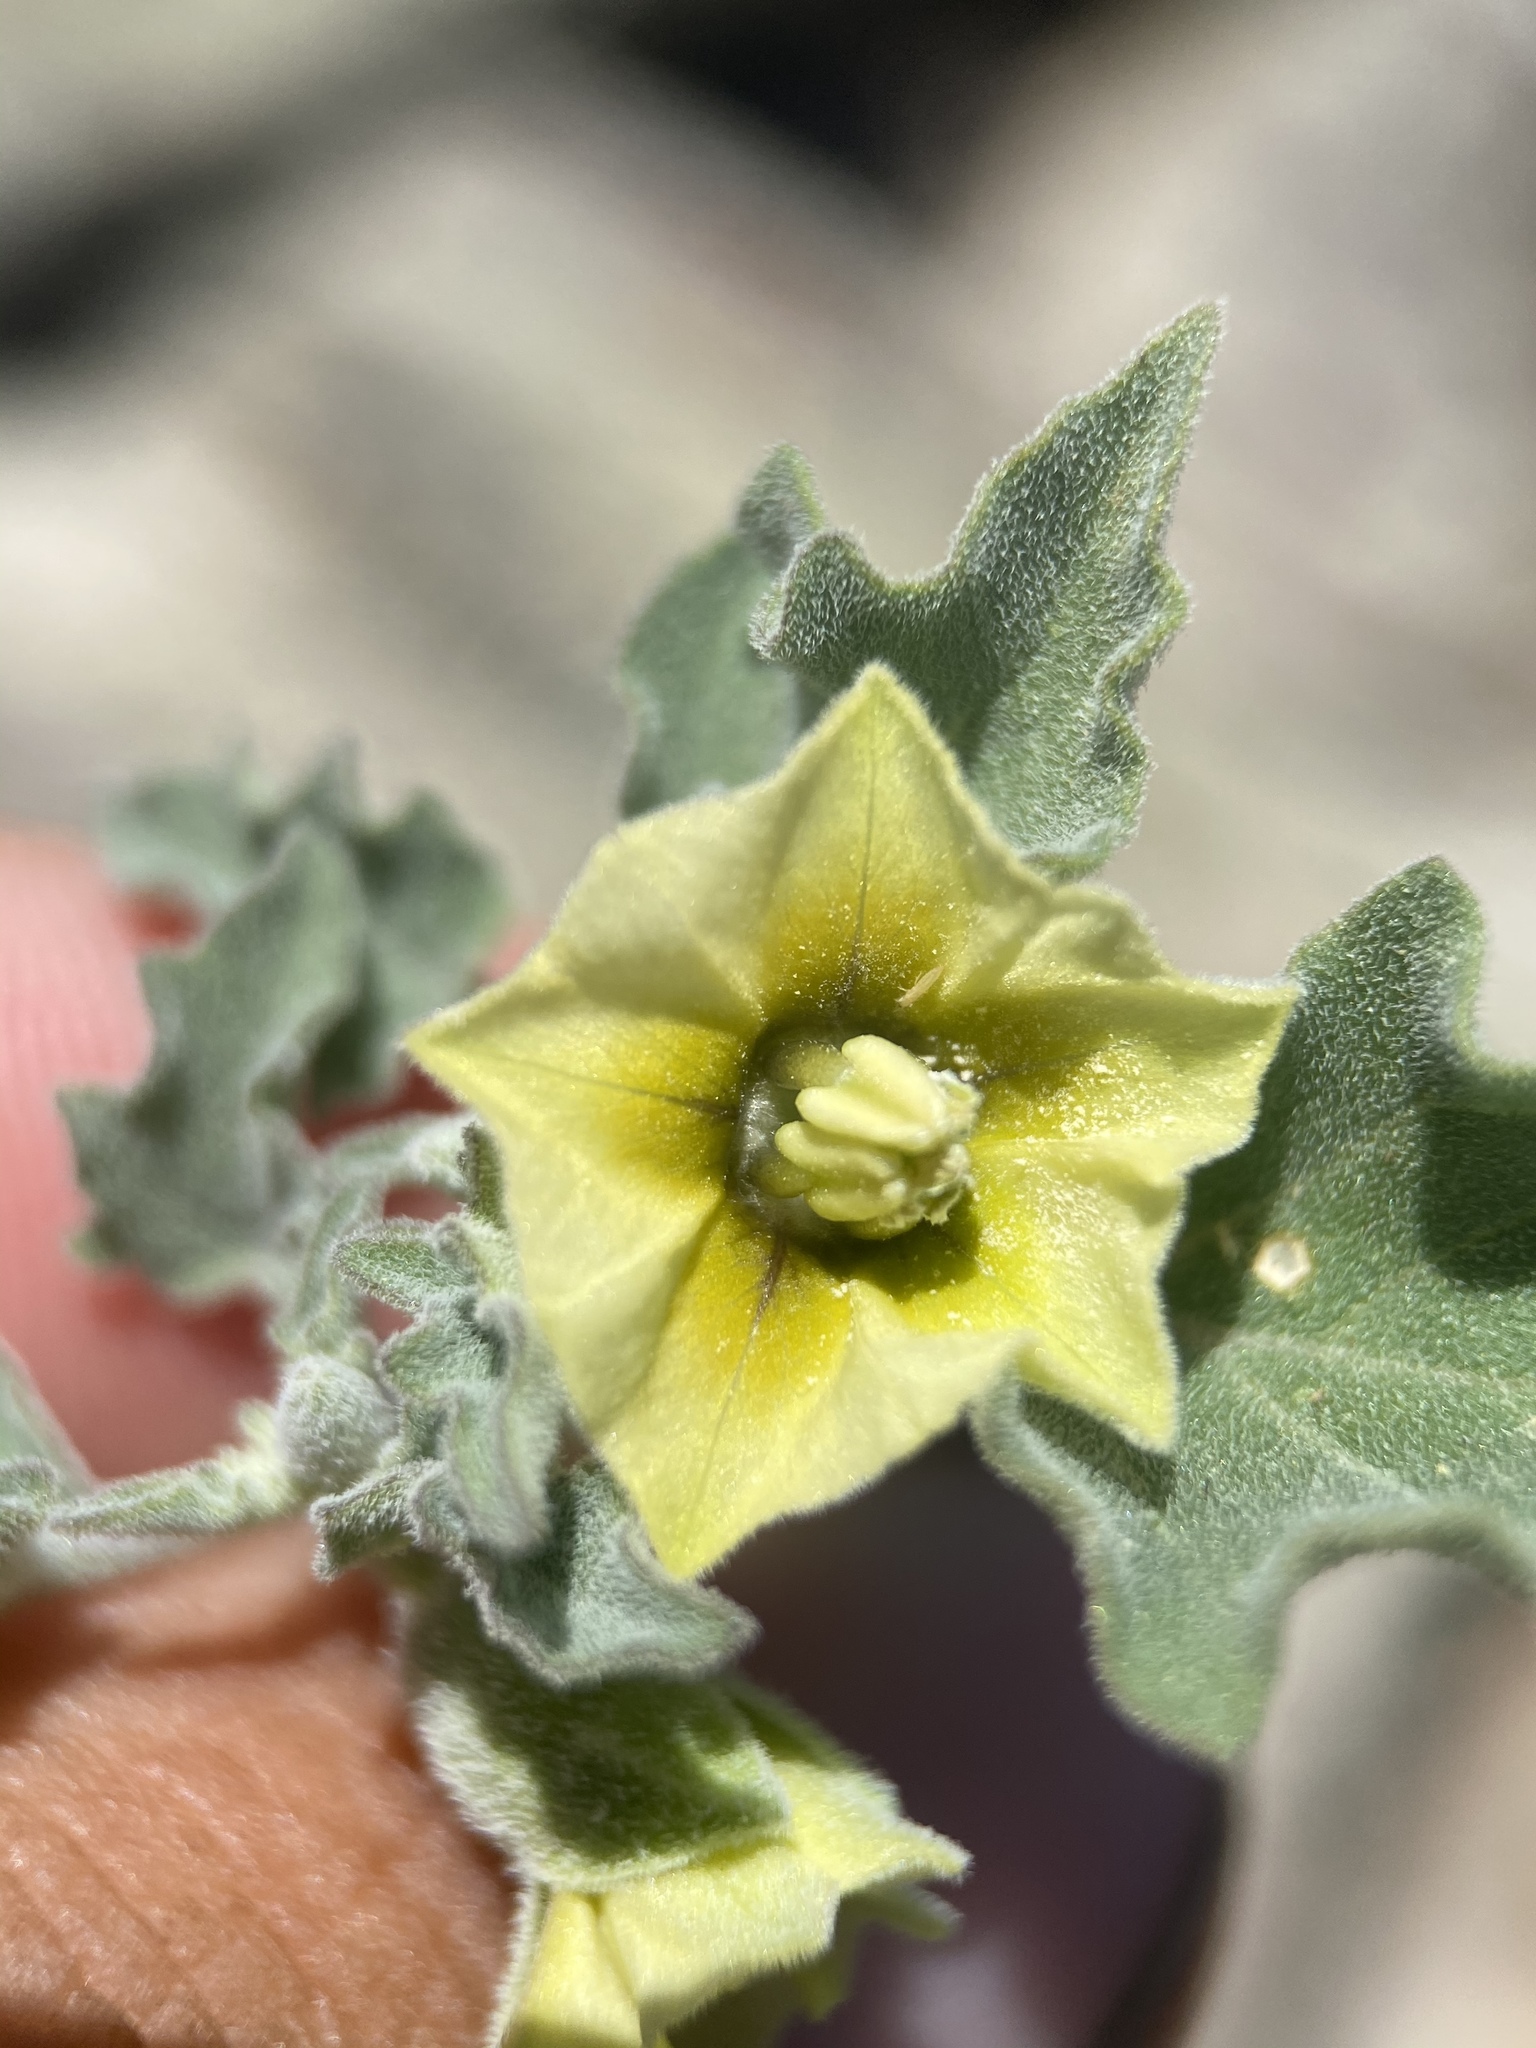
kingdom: Plantae
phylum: Tracheophyta
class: Magnoliopsida
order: Solanales
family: Solanaceae
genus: Physalis
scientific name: Physalis fendleri
